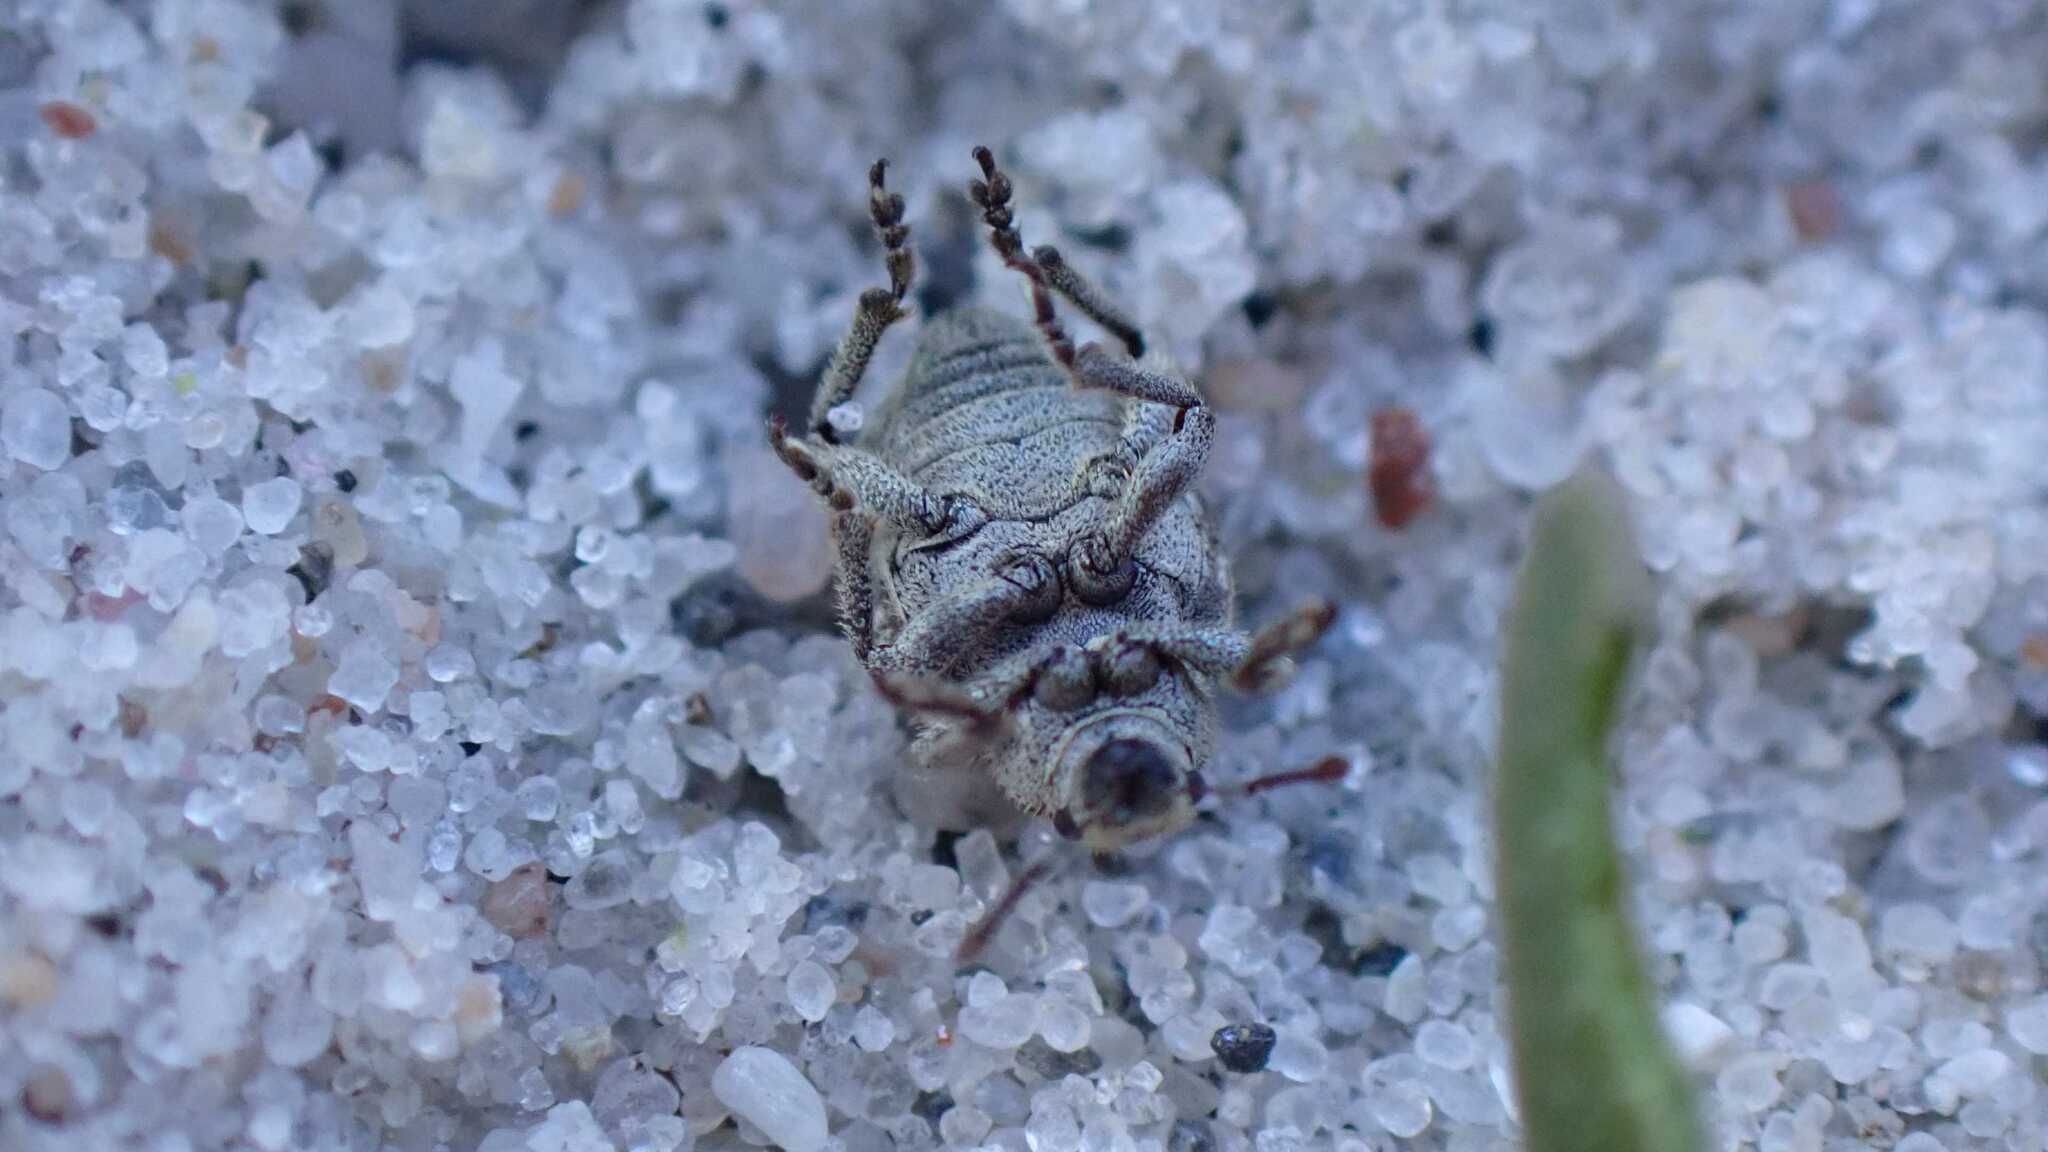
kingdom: Animalia
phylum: Arthropoda
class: Insecta
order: Coleoptera
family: Curculionidae
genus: Philopedon
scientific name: Philopedon plagiatum
